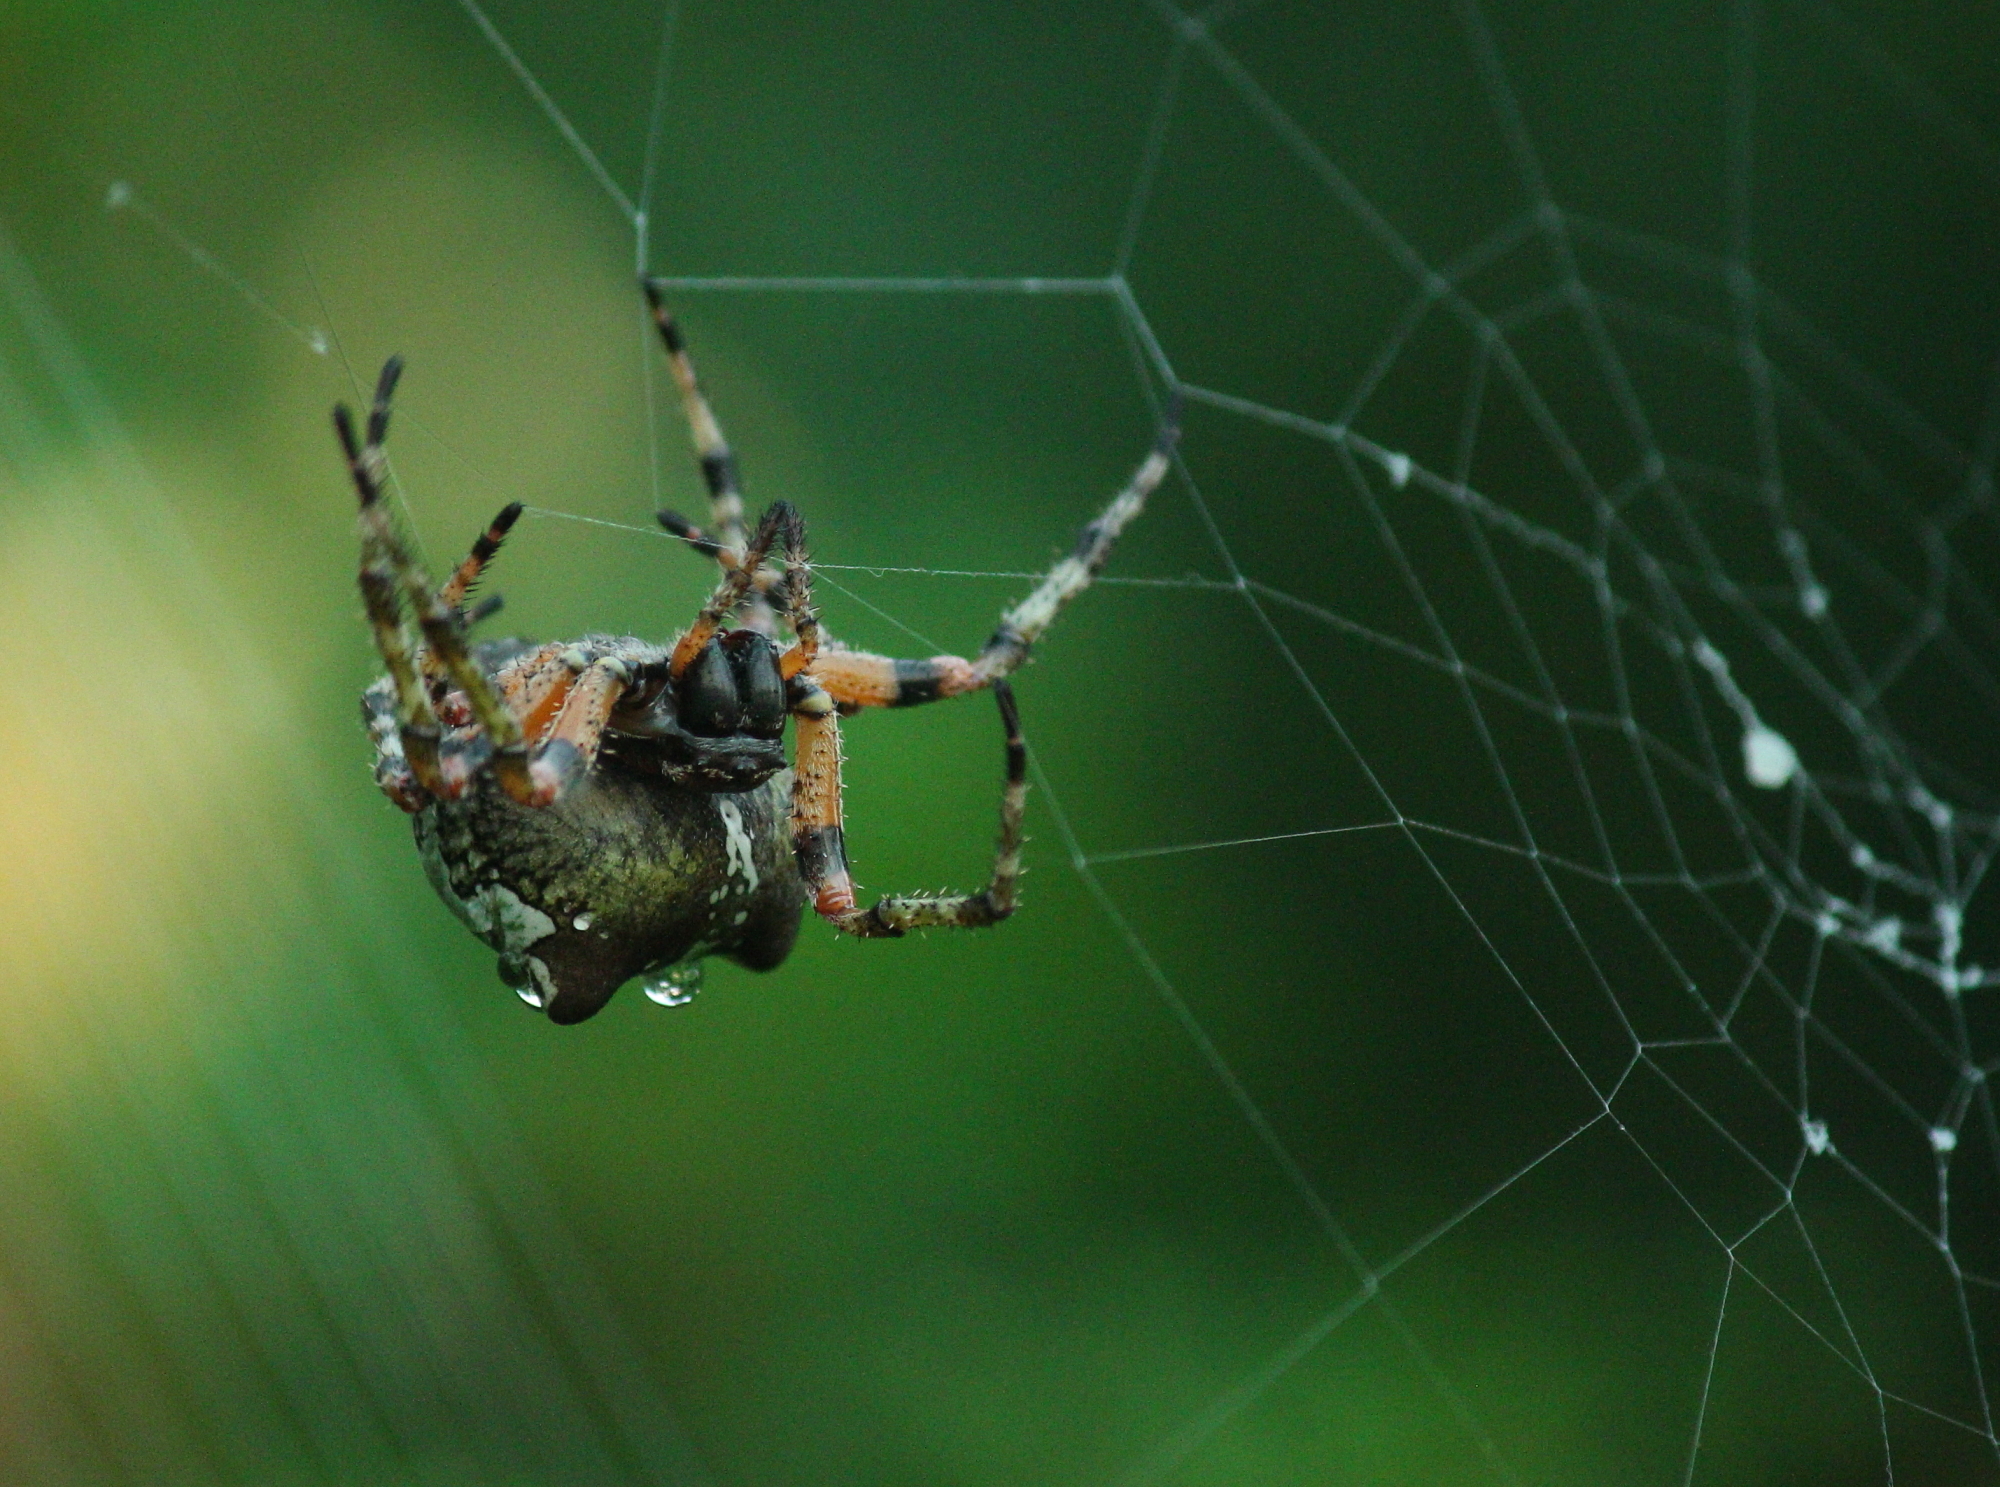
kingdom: Animalia
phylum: Arthropoda
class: Arachnida
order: Araneae
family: Araneidae
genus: Araneus
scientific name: Araneus bicentenarius
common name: Giant lichen orbweaver
